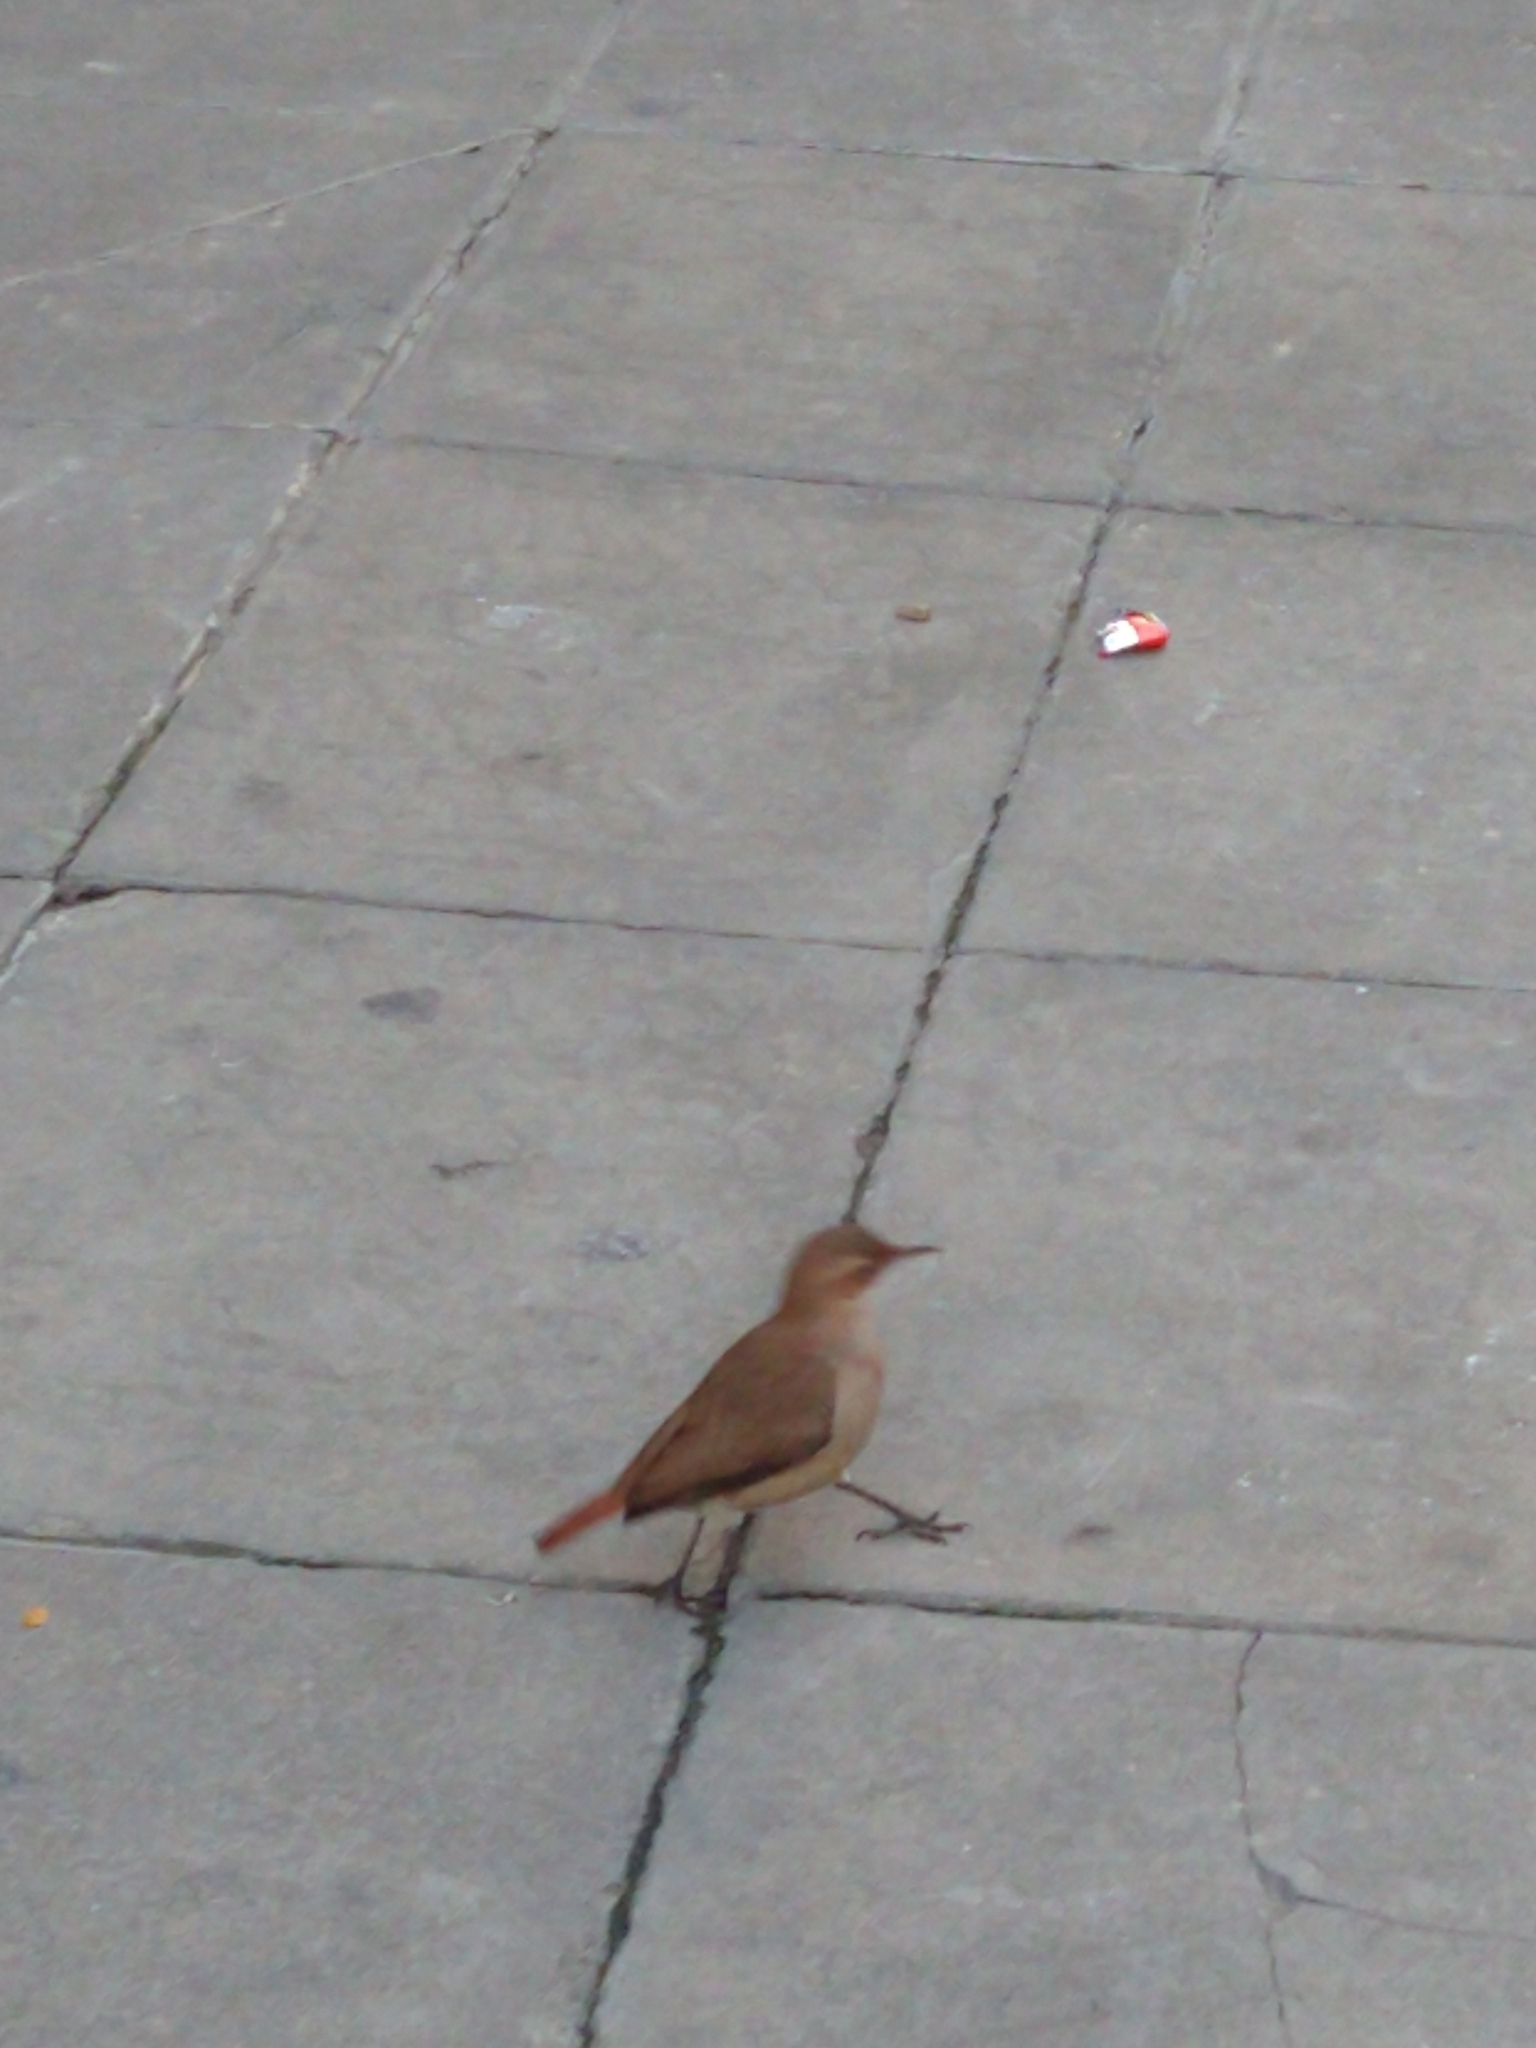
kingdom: Animalia
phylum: Chordata
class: Aves
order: Passeriformes
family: Furnariidae
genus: Furnarius
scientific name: Furnarius rufus
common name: Rufous hornero
